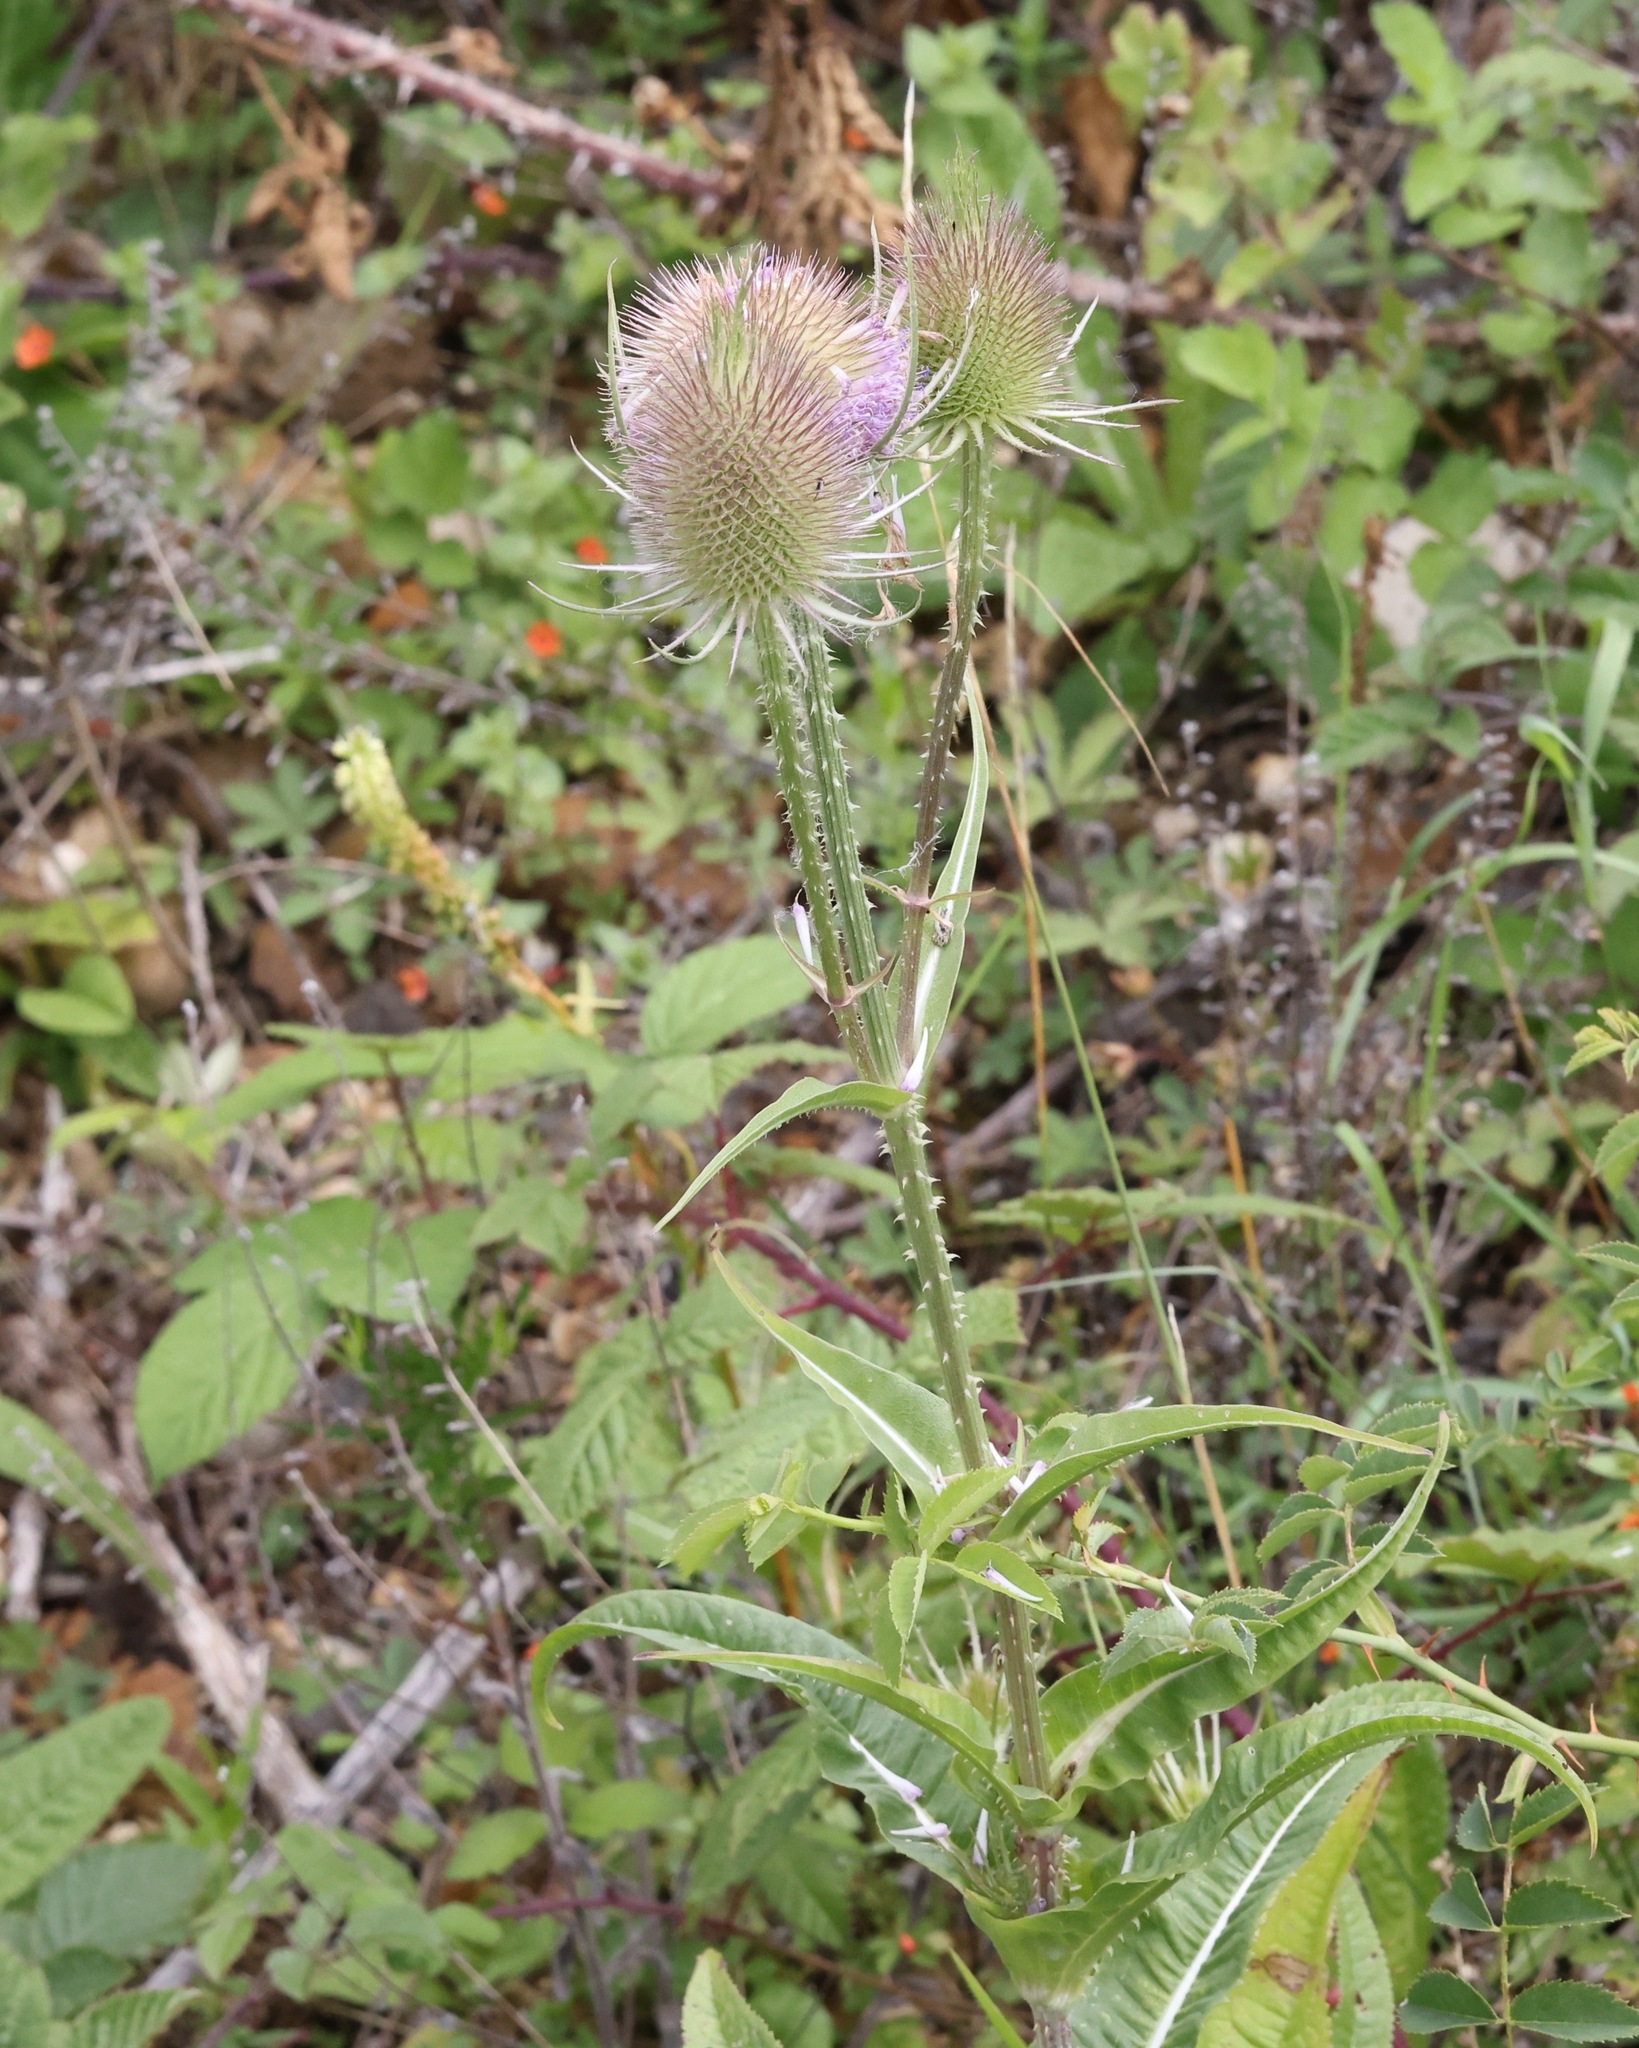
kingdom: Plantae
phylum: Tracheophyta
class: Magnoliopsida
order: Dipsacales
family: Caprifoliaceae
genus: Dipsacus
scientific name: Dipsacus fullonum
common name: Teasel
